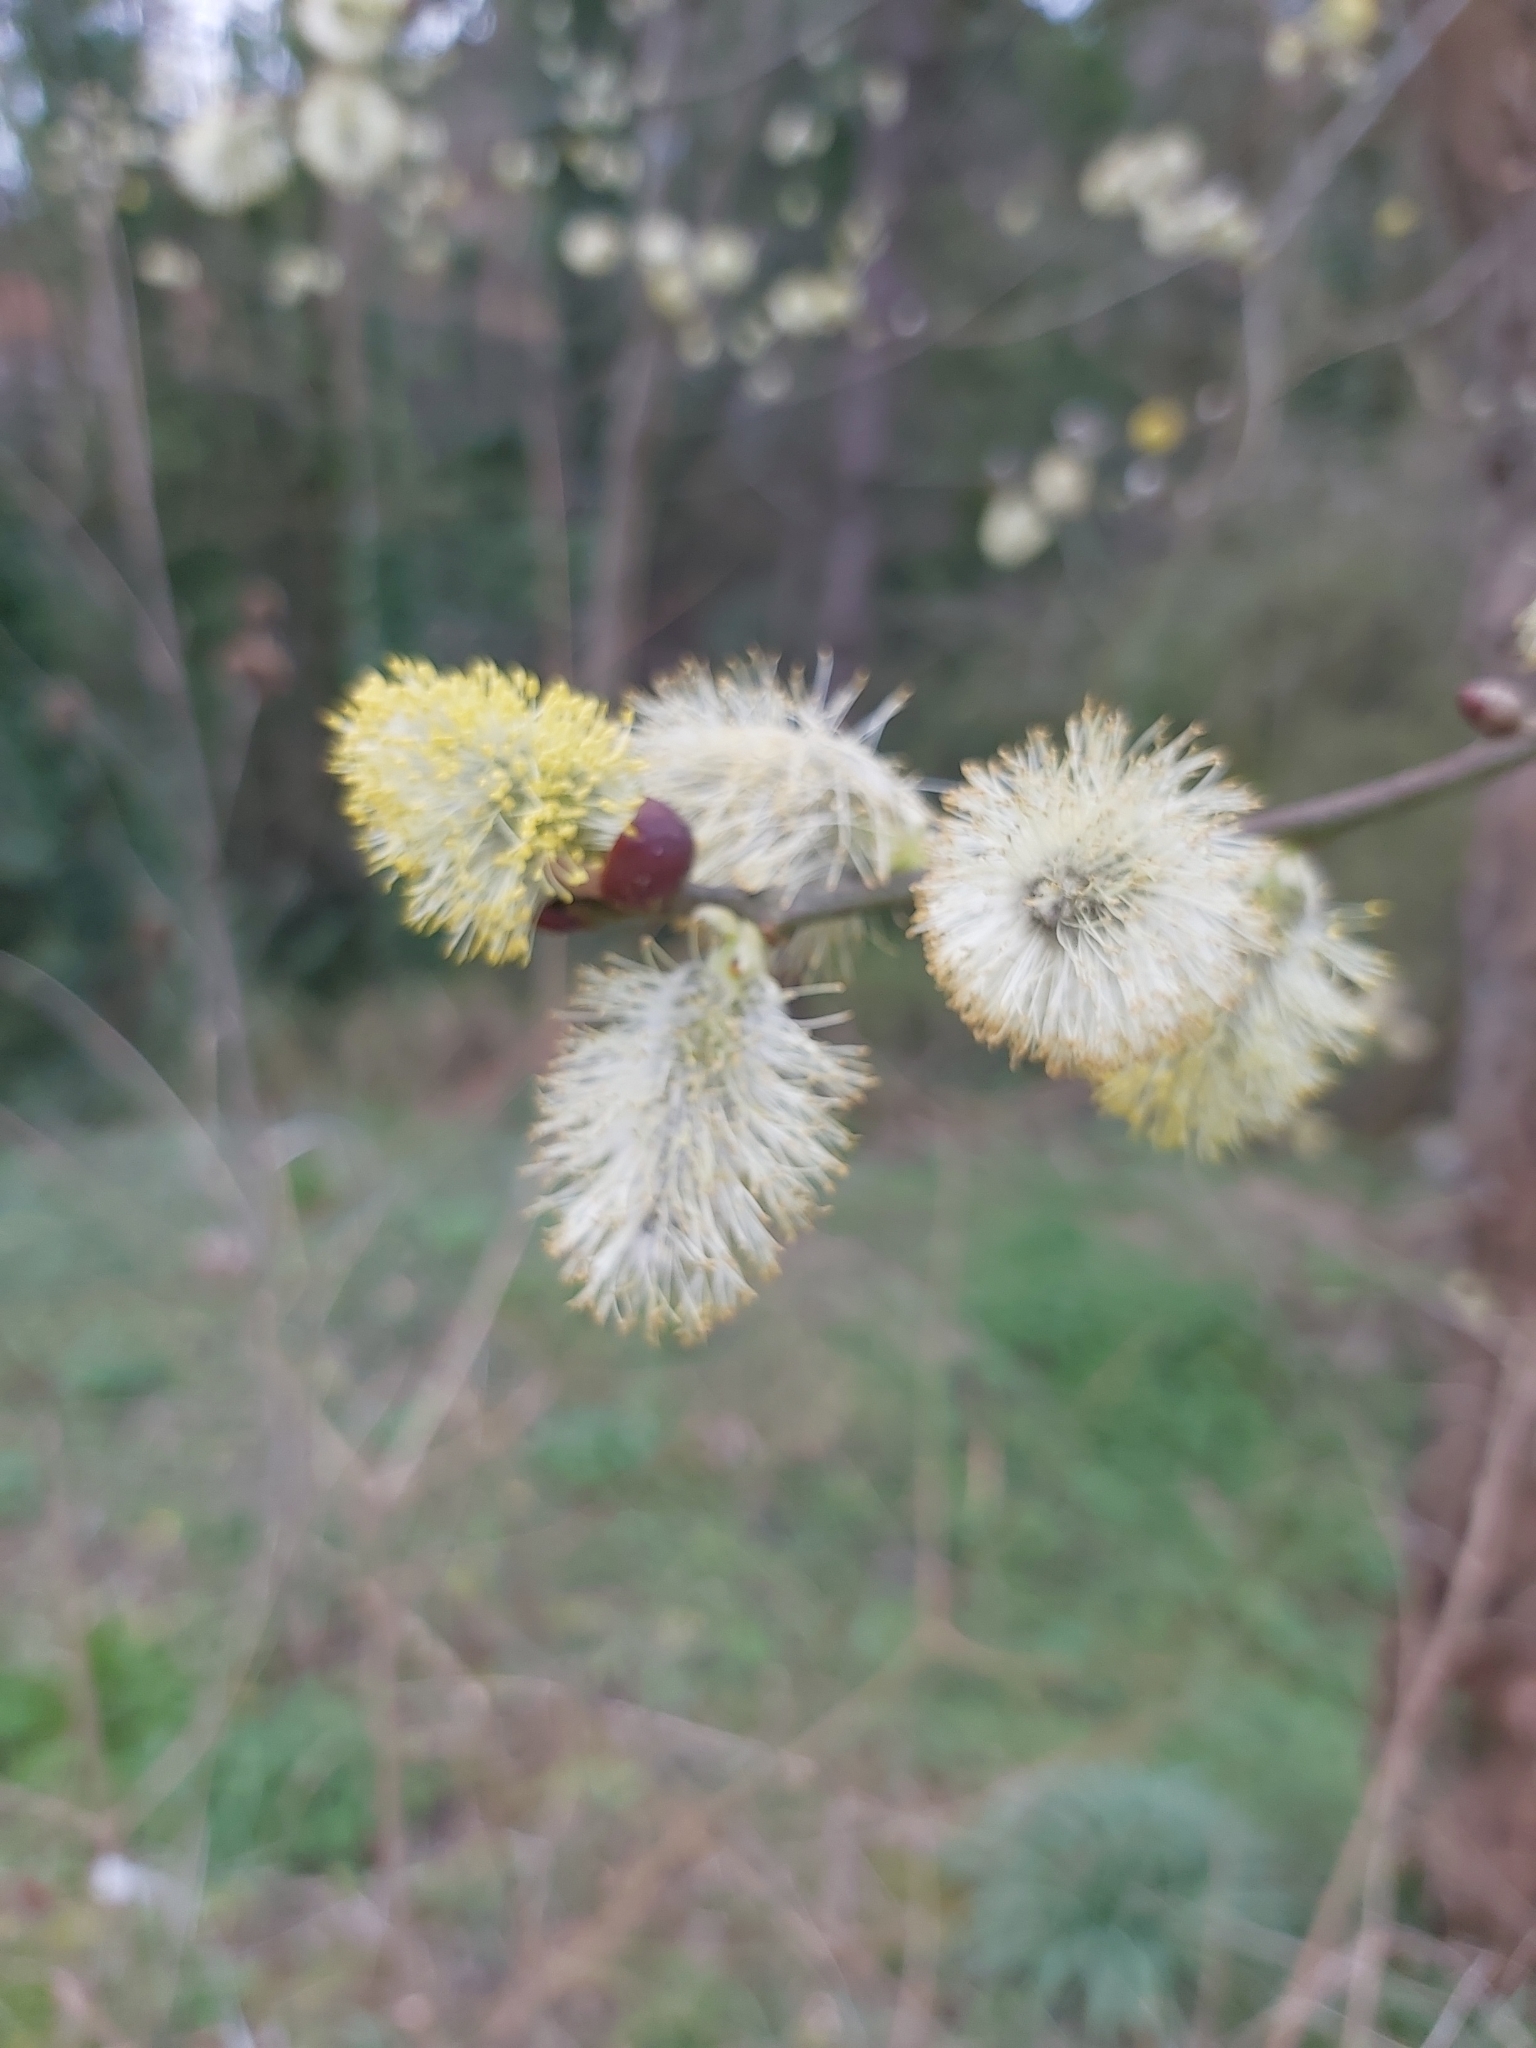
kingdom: Plantae
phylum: Tracheophyta
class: Magnoliopsida
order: Malpighiales
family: Salicaceae
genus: Salix
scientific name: Salix caprea
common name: Goat willow
